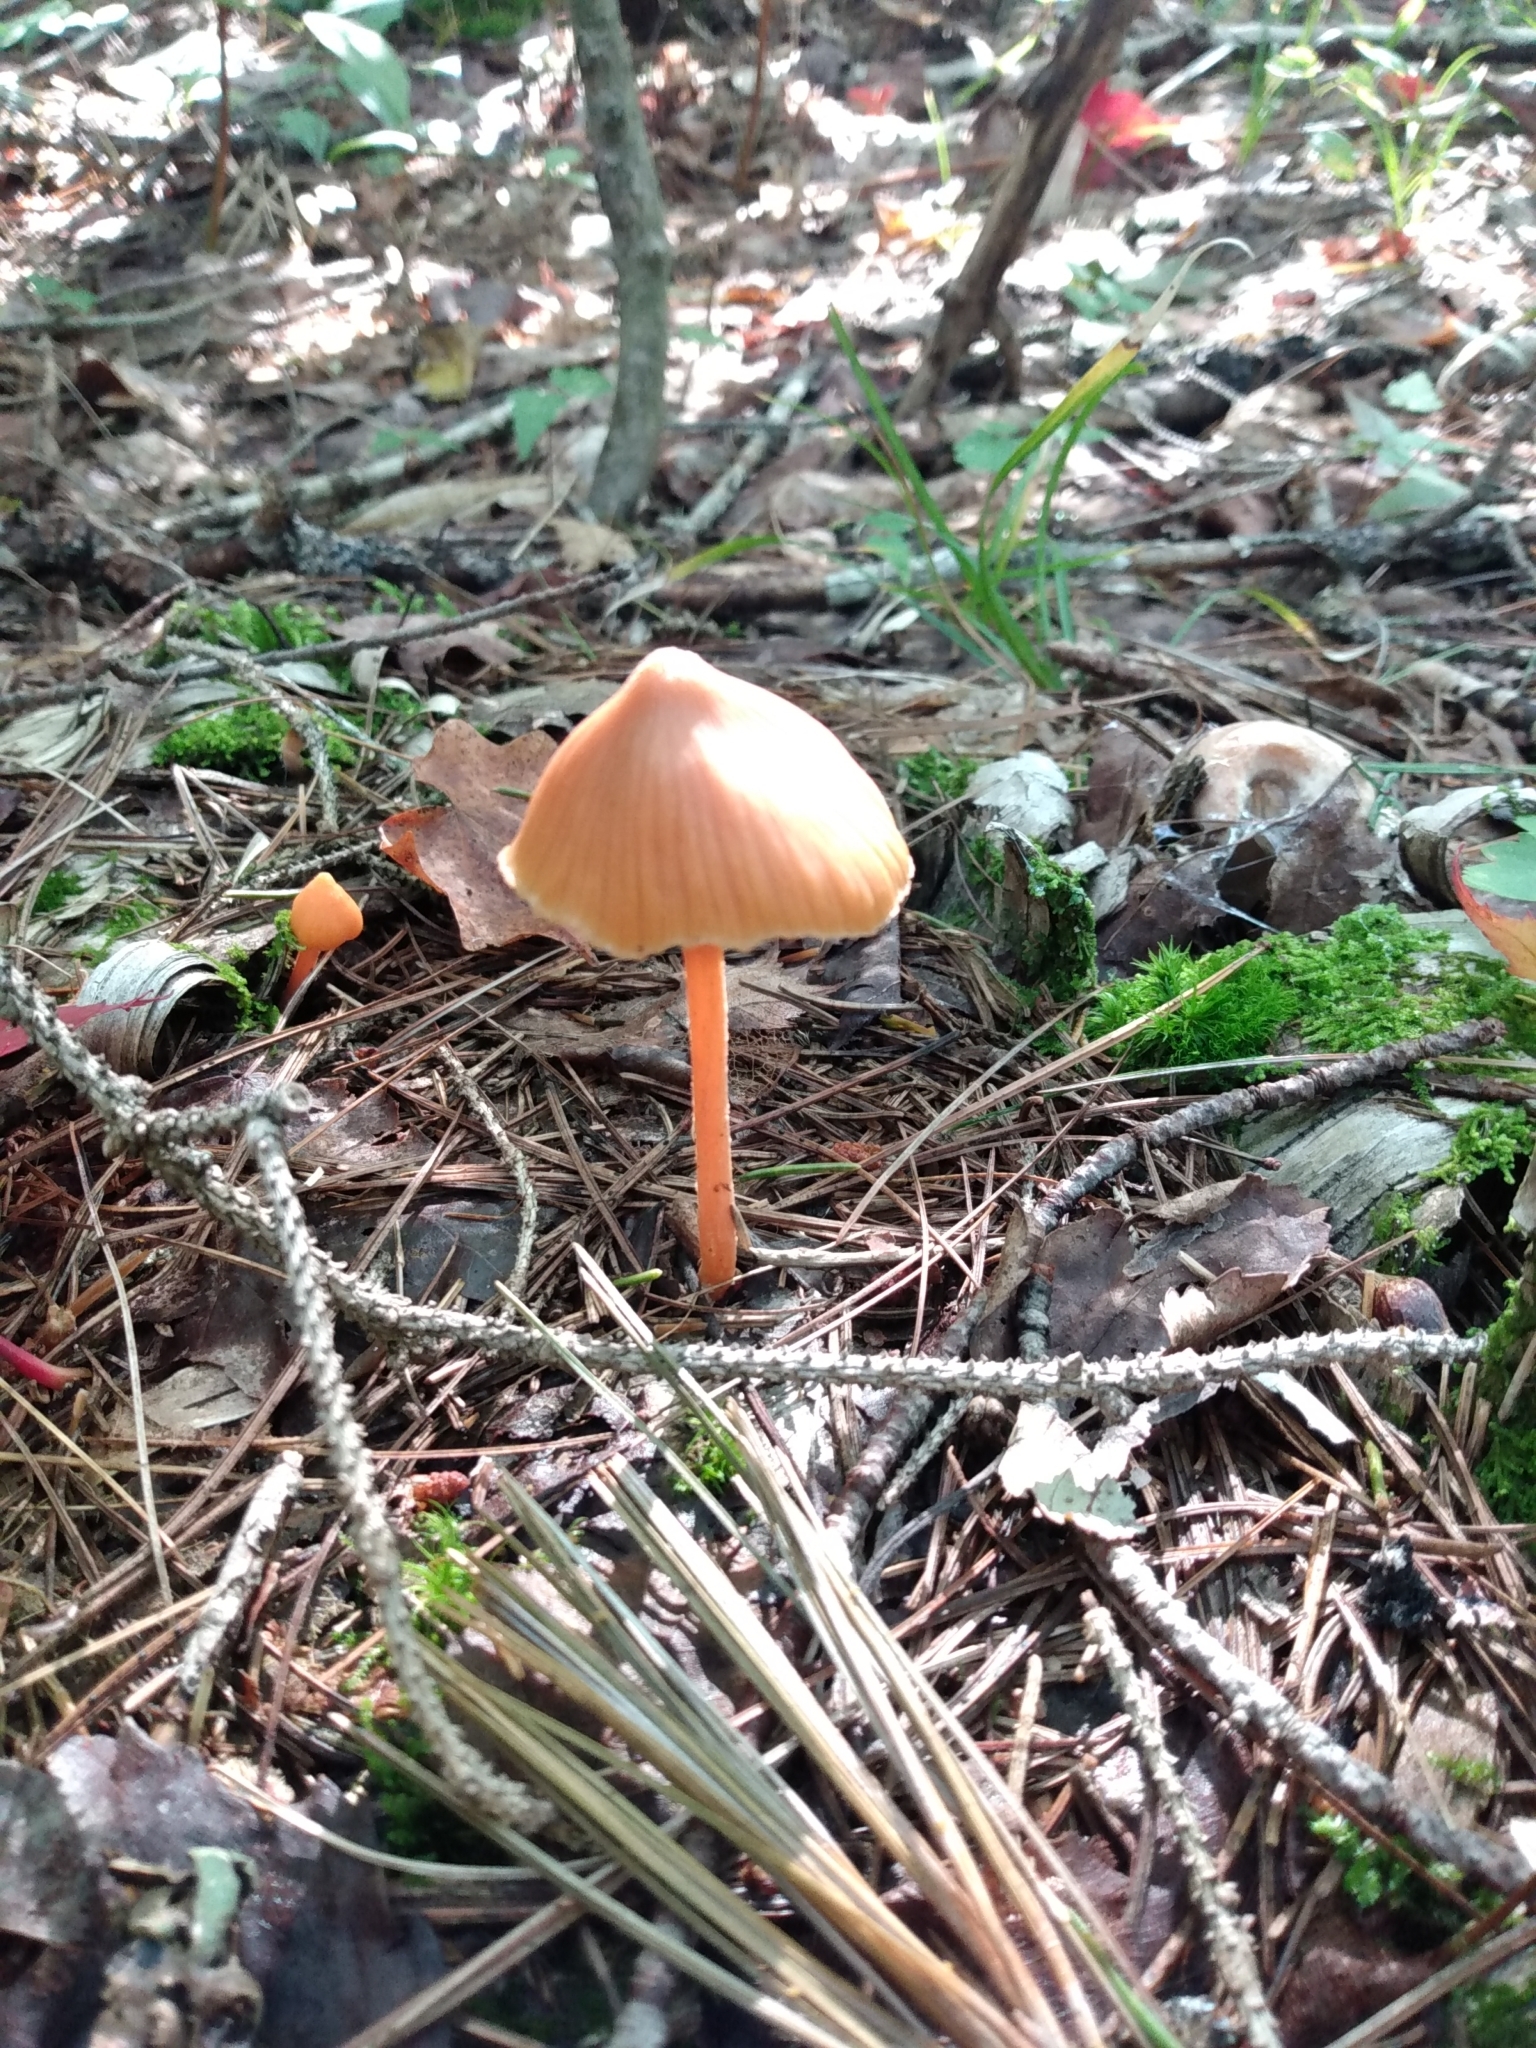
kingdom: Fungi
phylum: Basidiomycota
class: Agaricomycetes
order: Agaricales
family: Entolomataceae
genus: Entoloma
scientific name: Entoloma quadratum
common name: Salmon pinkgill
